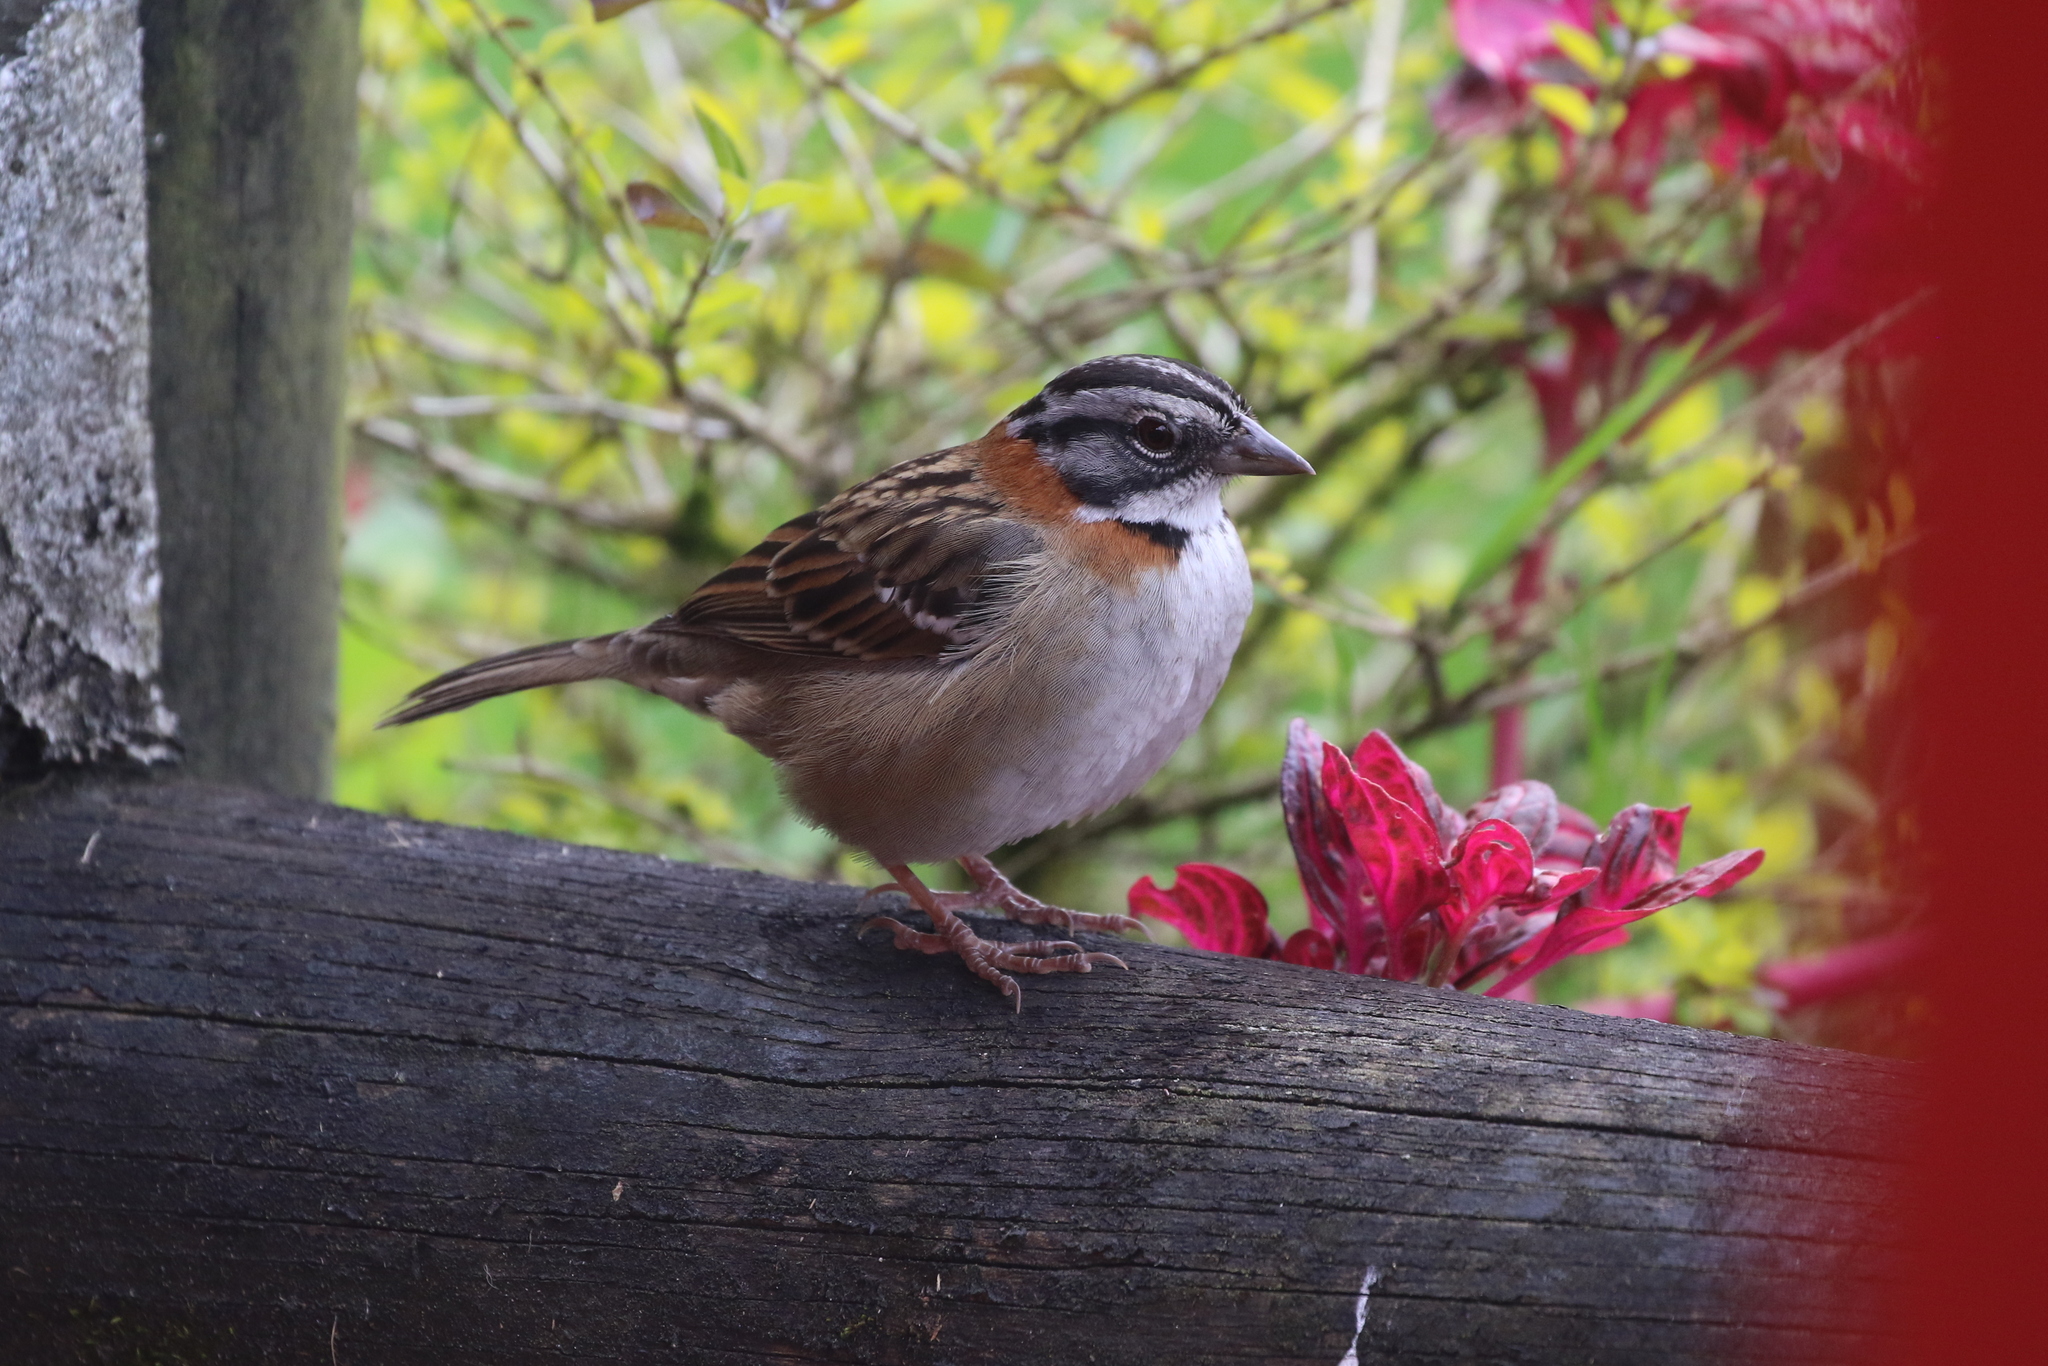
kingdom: Animalia
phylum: Chordata
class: Aves
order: Passeriformes
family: Passerellidae
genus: Zonotrichia
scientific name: Zonotrichia capensis
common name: Rufous-collared sparrow
